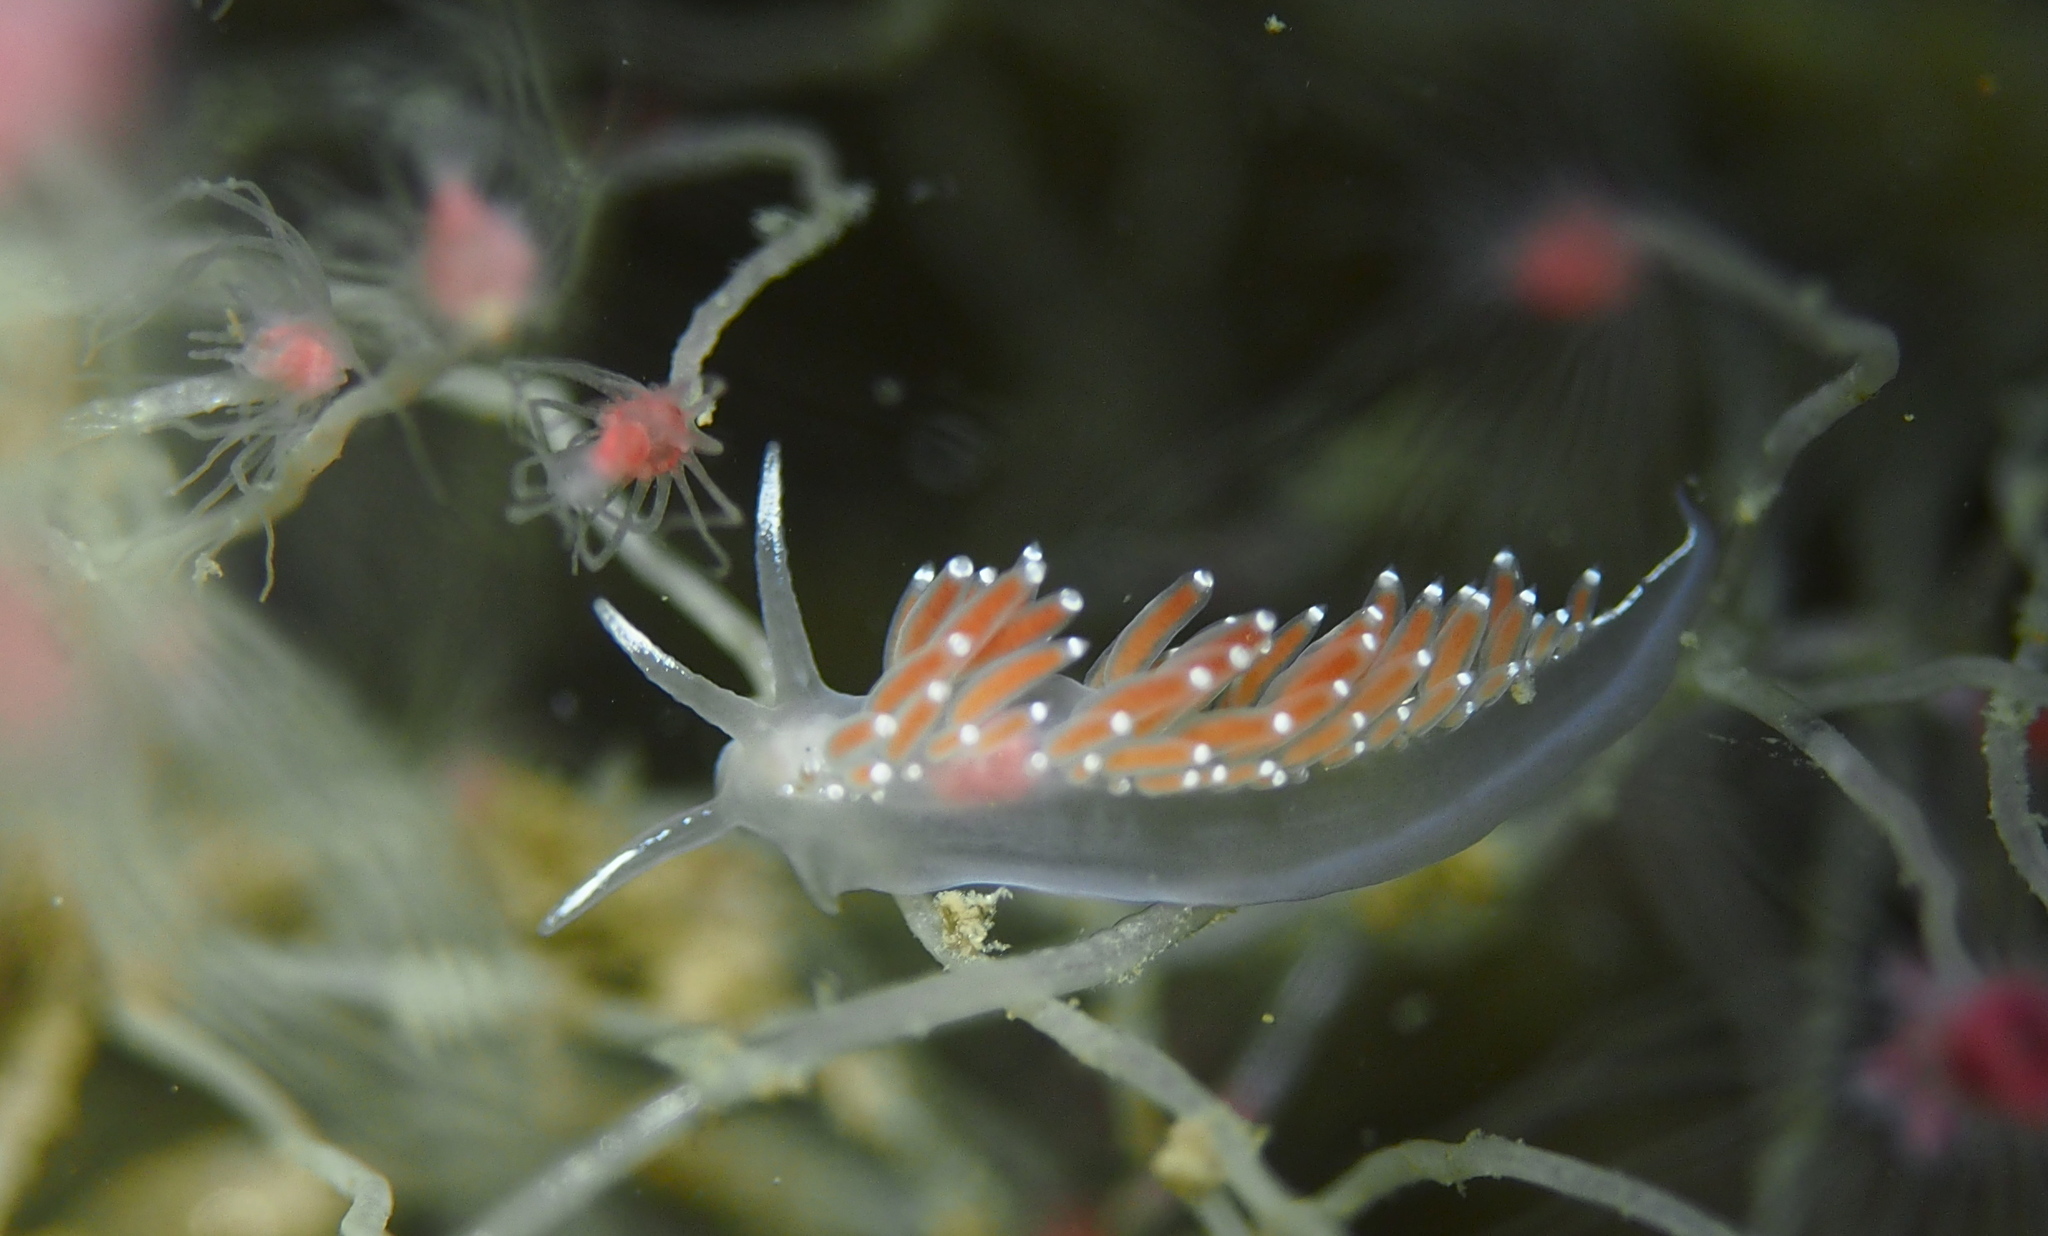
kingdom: Animalia
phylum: Mollusca
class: Gastropoda
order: Nudibranchia
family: Coryphellidae
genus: Coryphella
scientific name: Coryphella verrucosa
